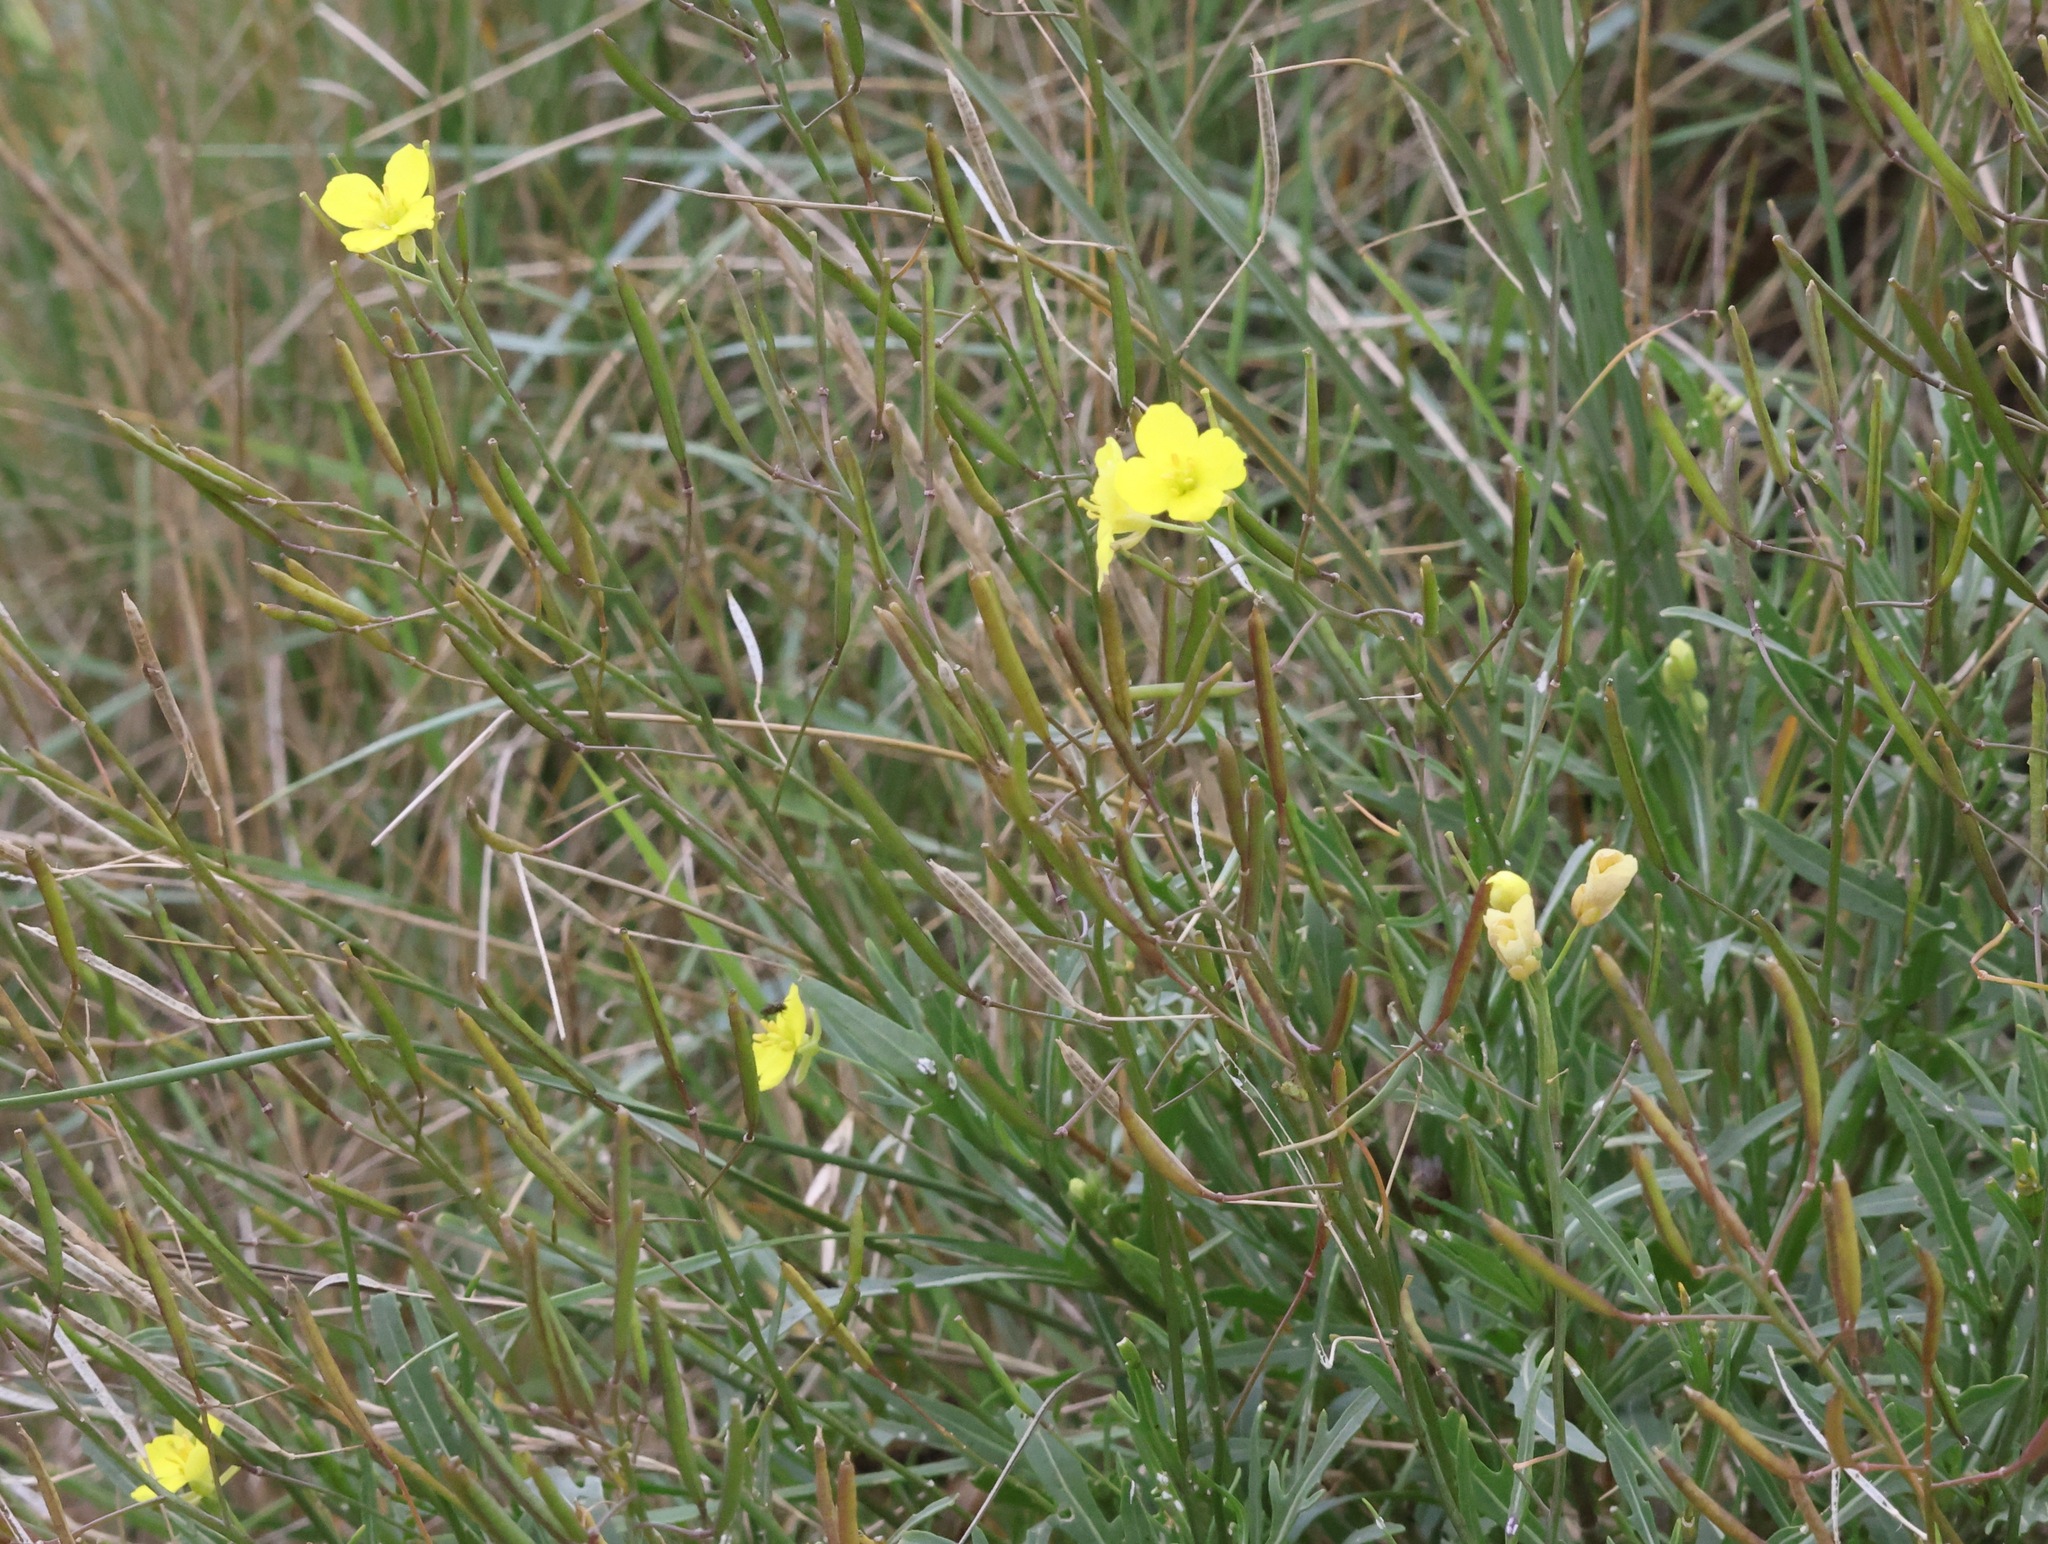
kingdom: Plantae
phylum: Tracheophyta
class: Magnoliopsida
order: Brassicales
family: Brassicaceae
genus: Diplotaxis
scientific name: Diplotaxis tenuifolia
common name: Perennial wall-rocket
